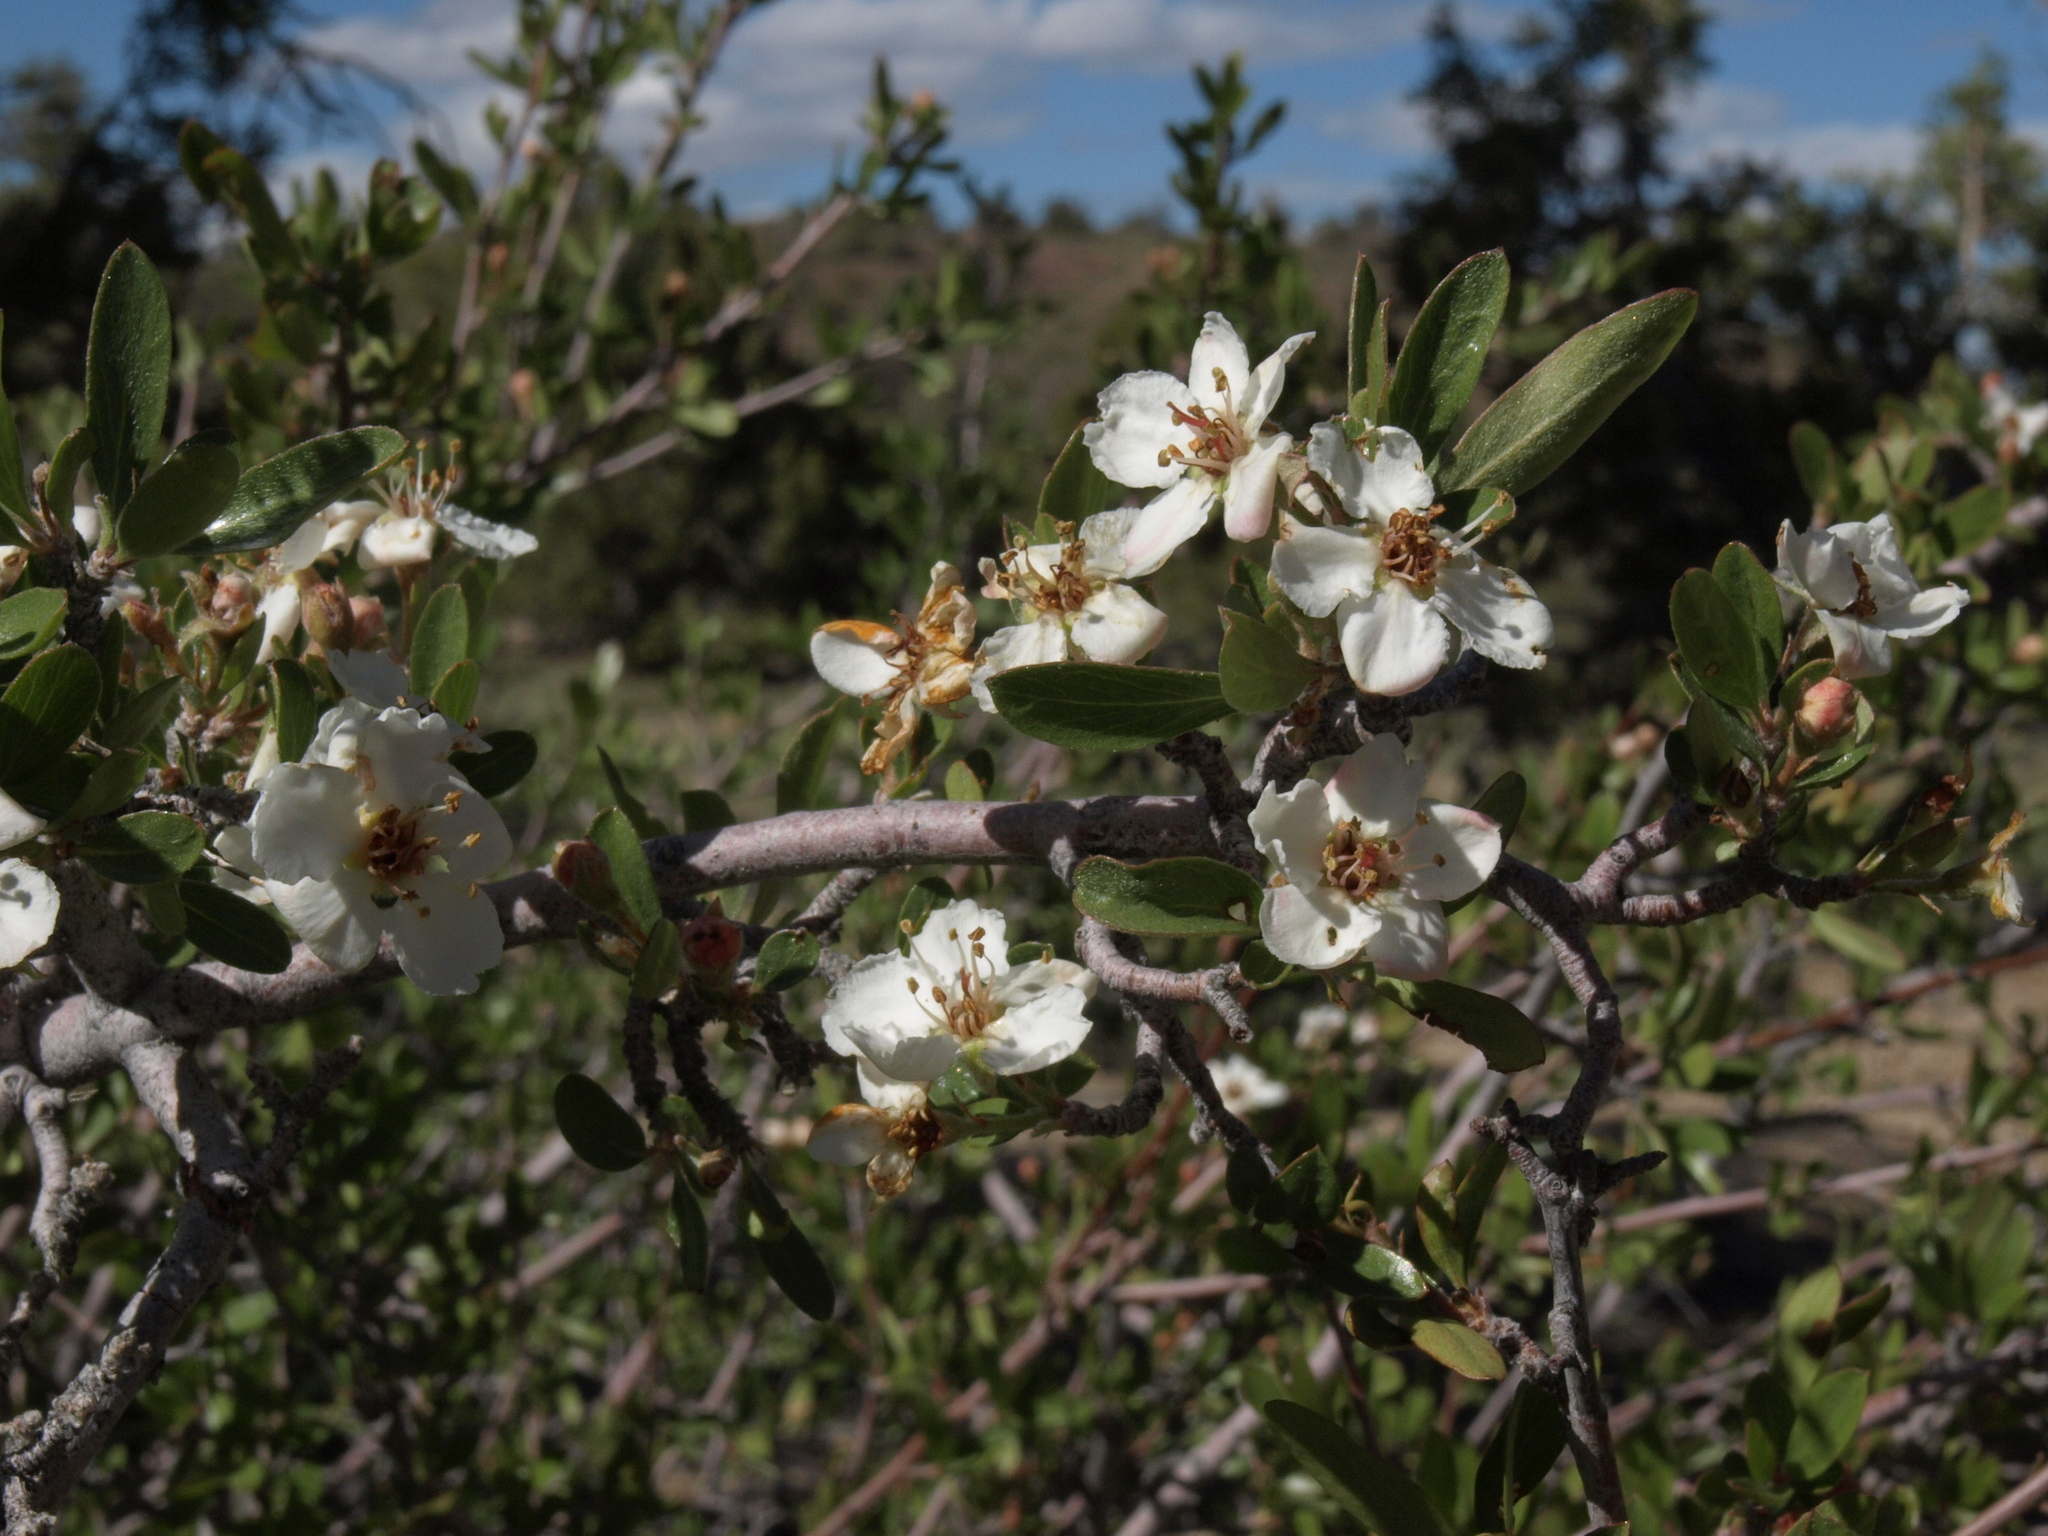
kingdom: Plantae
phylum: Tracheophyta
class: Magnoliopsida
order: Rosales
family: Rosaceae
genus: Amelanchier
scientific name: Amelanchier ramosissima
